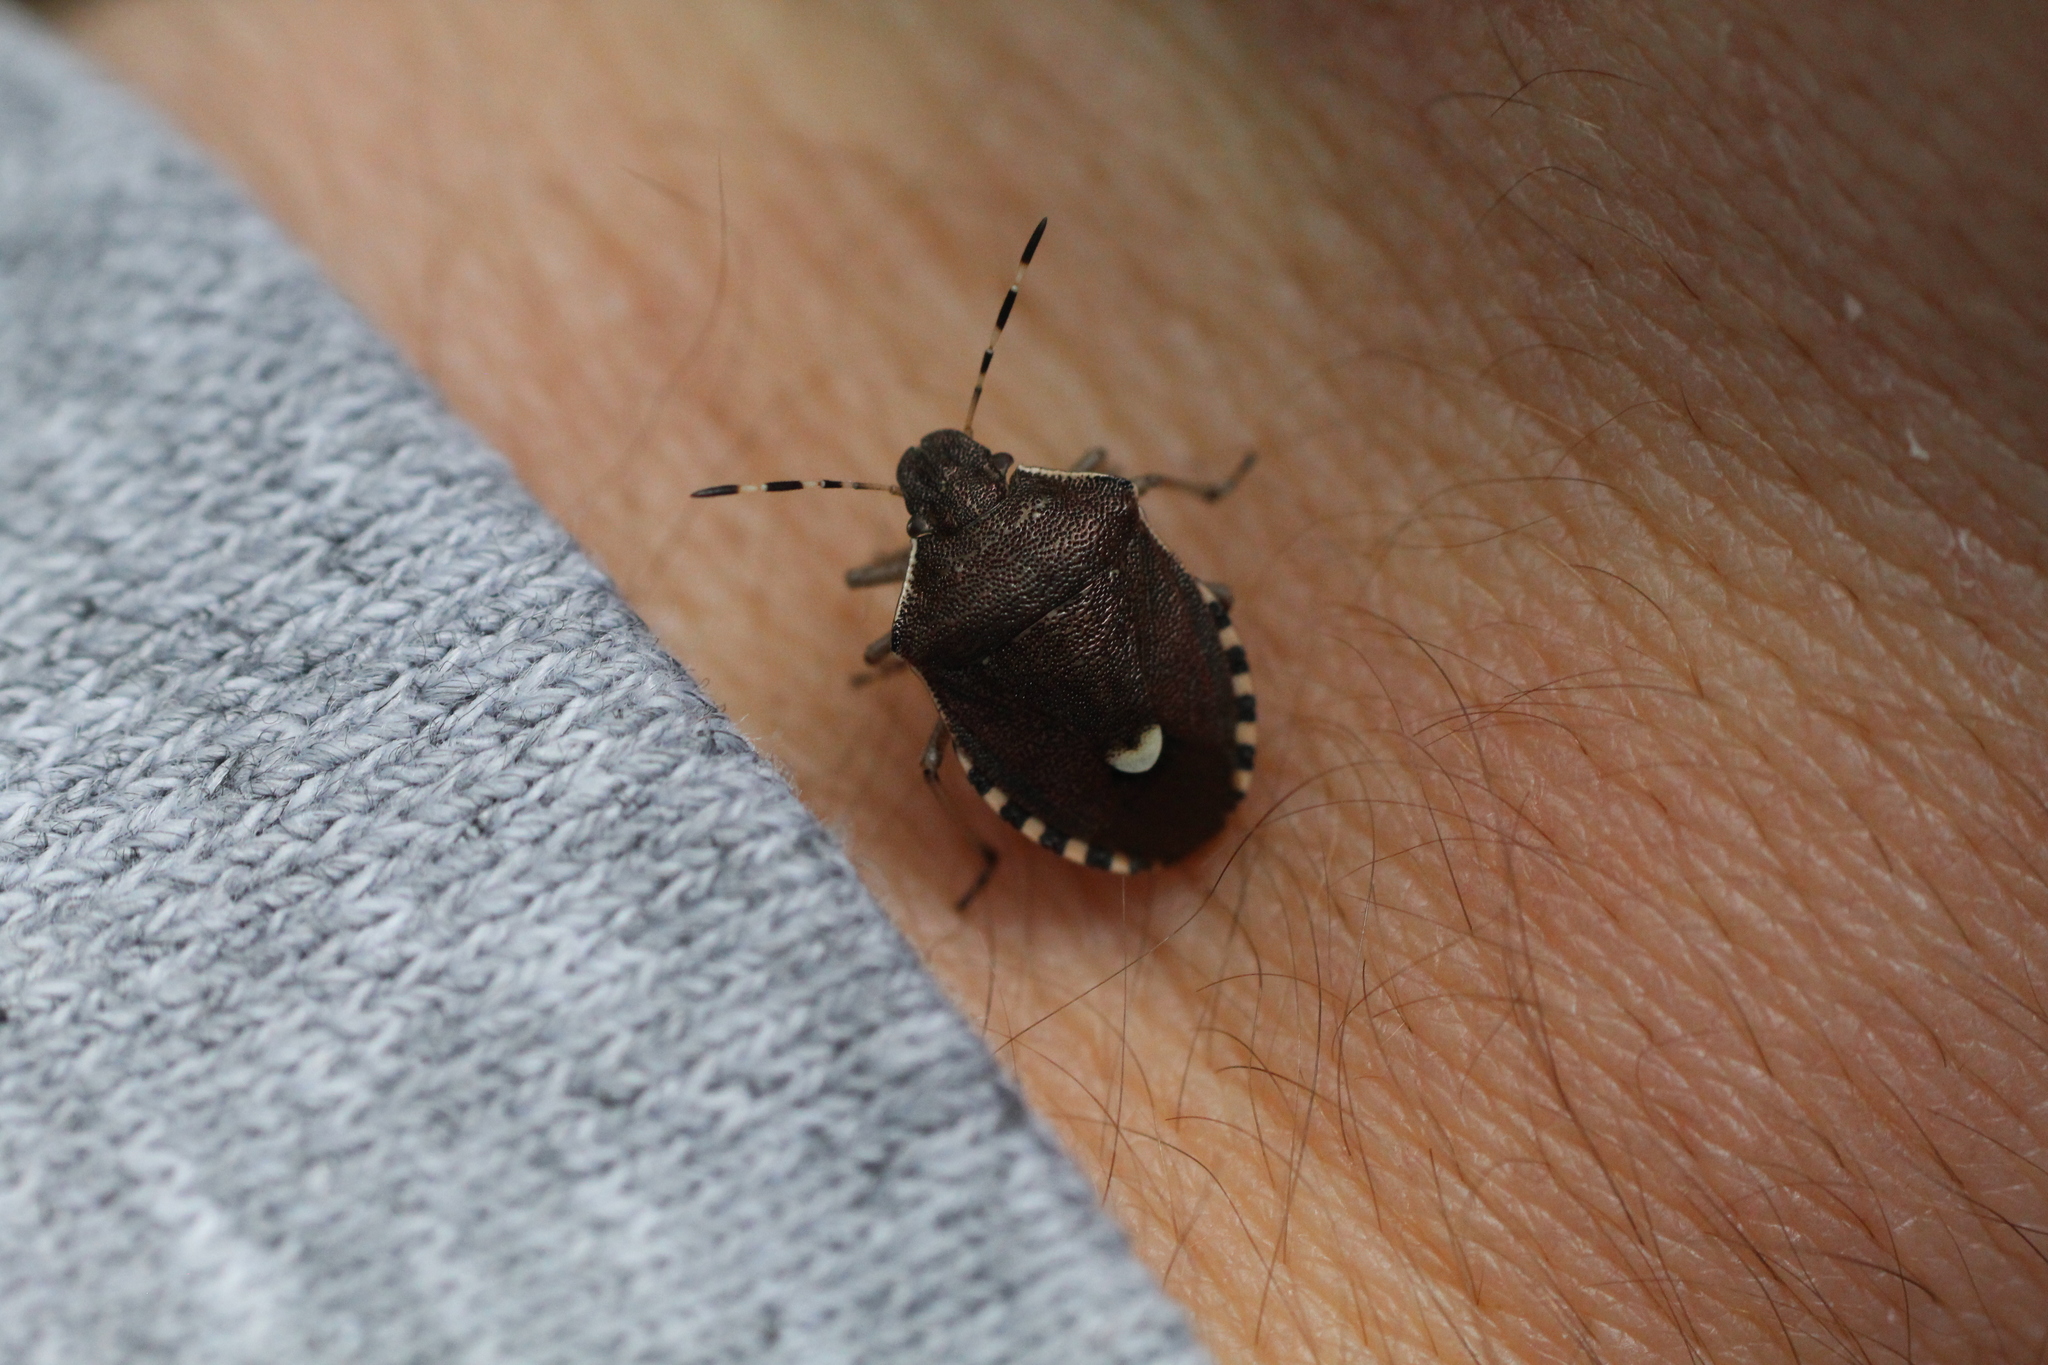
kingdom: Animalia
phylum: Arthropoda
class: Insecta
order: Hemiptera
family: Pentatomidae
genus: Holcostethus
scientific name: Holcostethus sphacelatus
